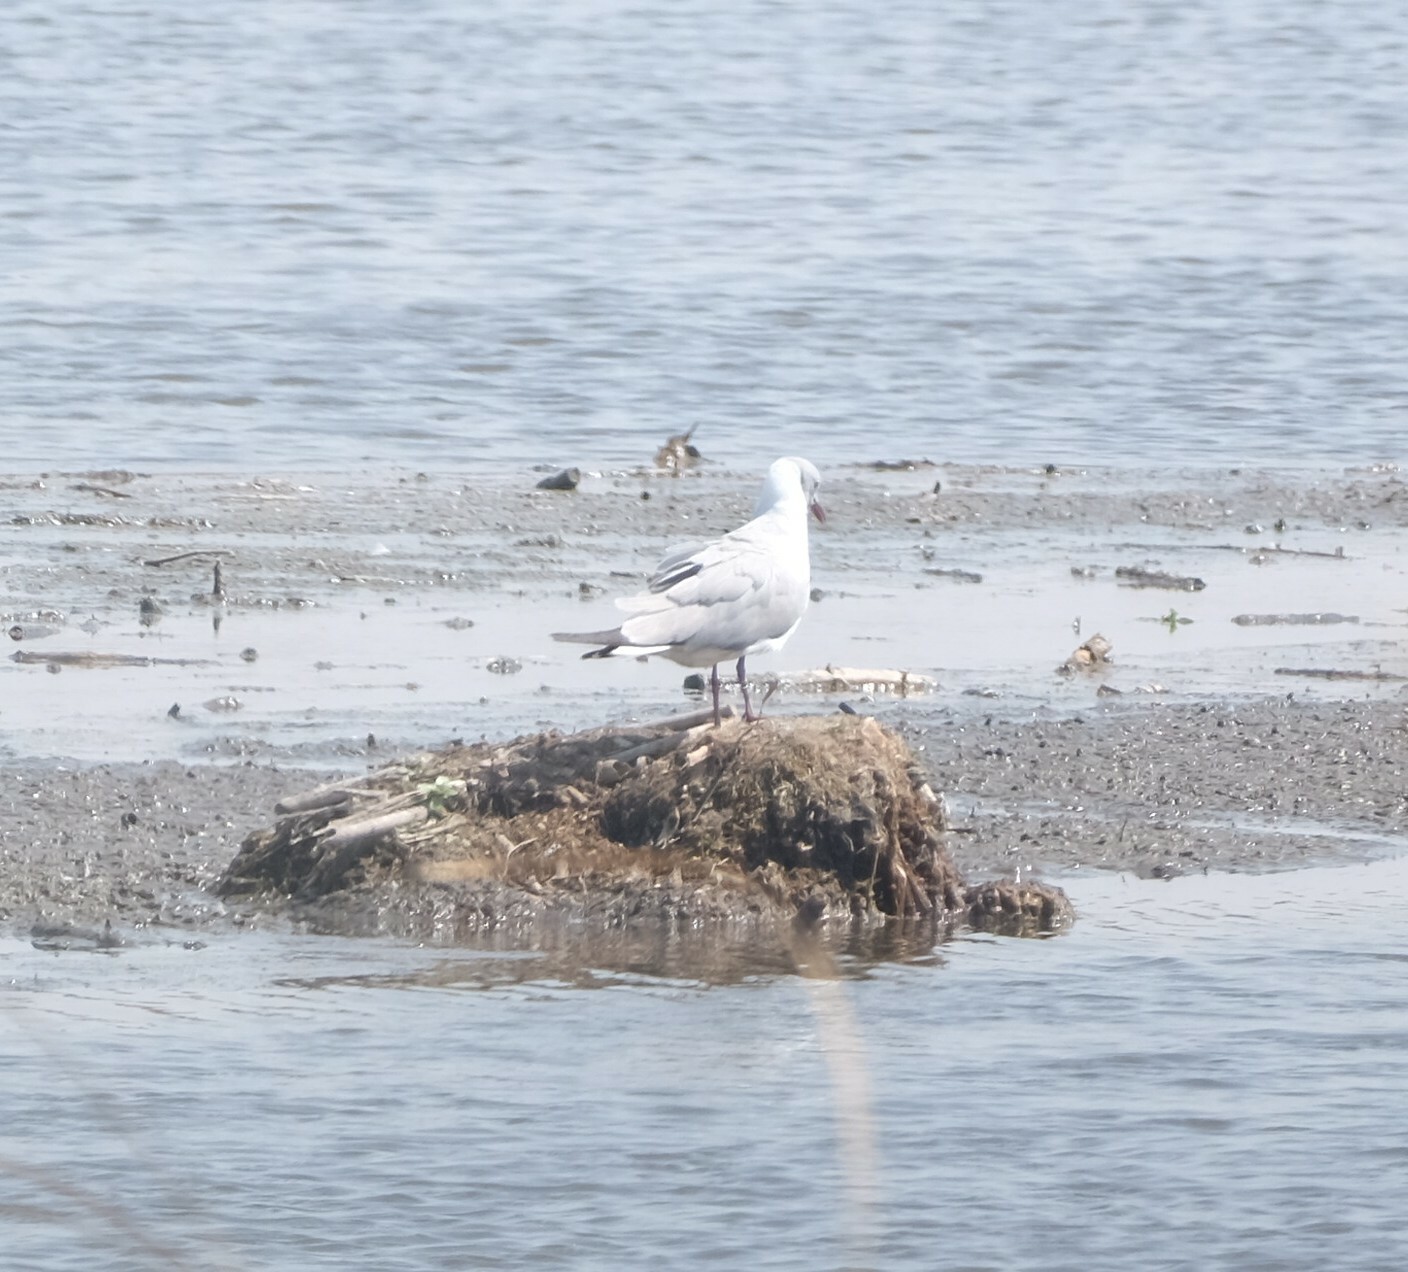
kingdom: Animalia
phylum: Chordata
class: Aves
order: Charadriiformes
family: Laridae
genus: Chroicocephalus
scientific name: Chroicocephalus cirrocephalus
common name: Grey-headed gull
